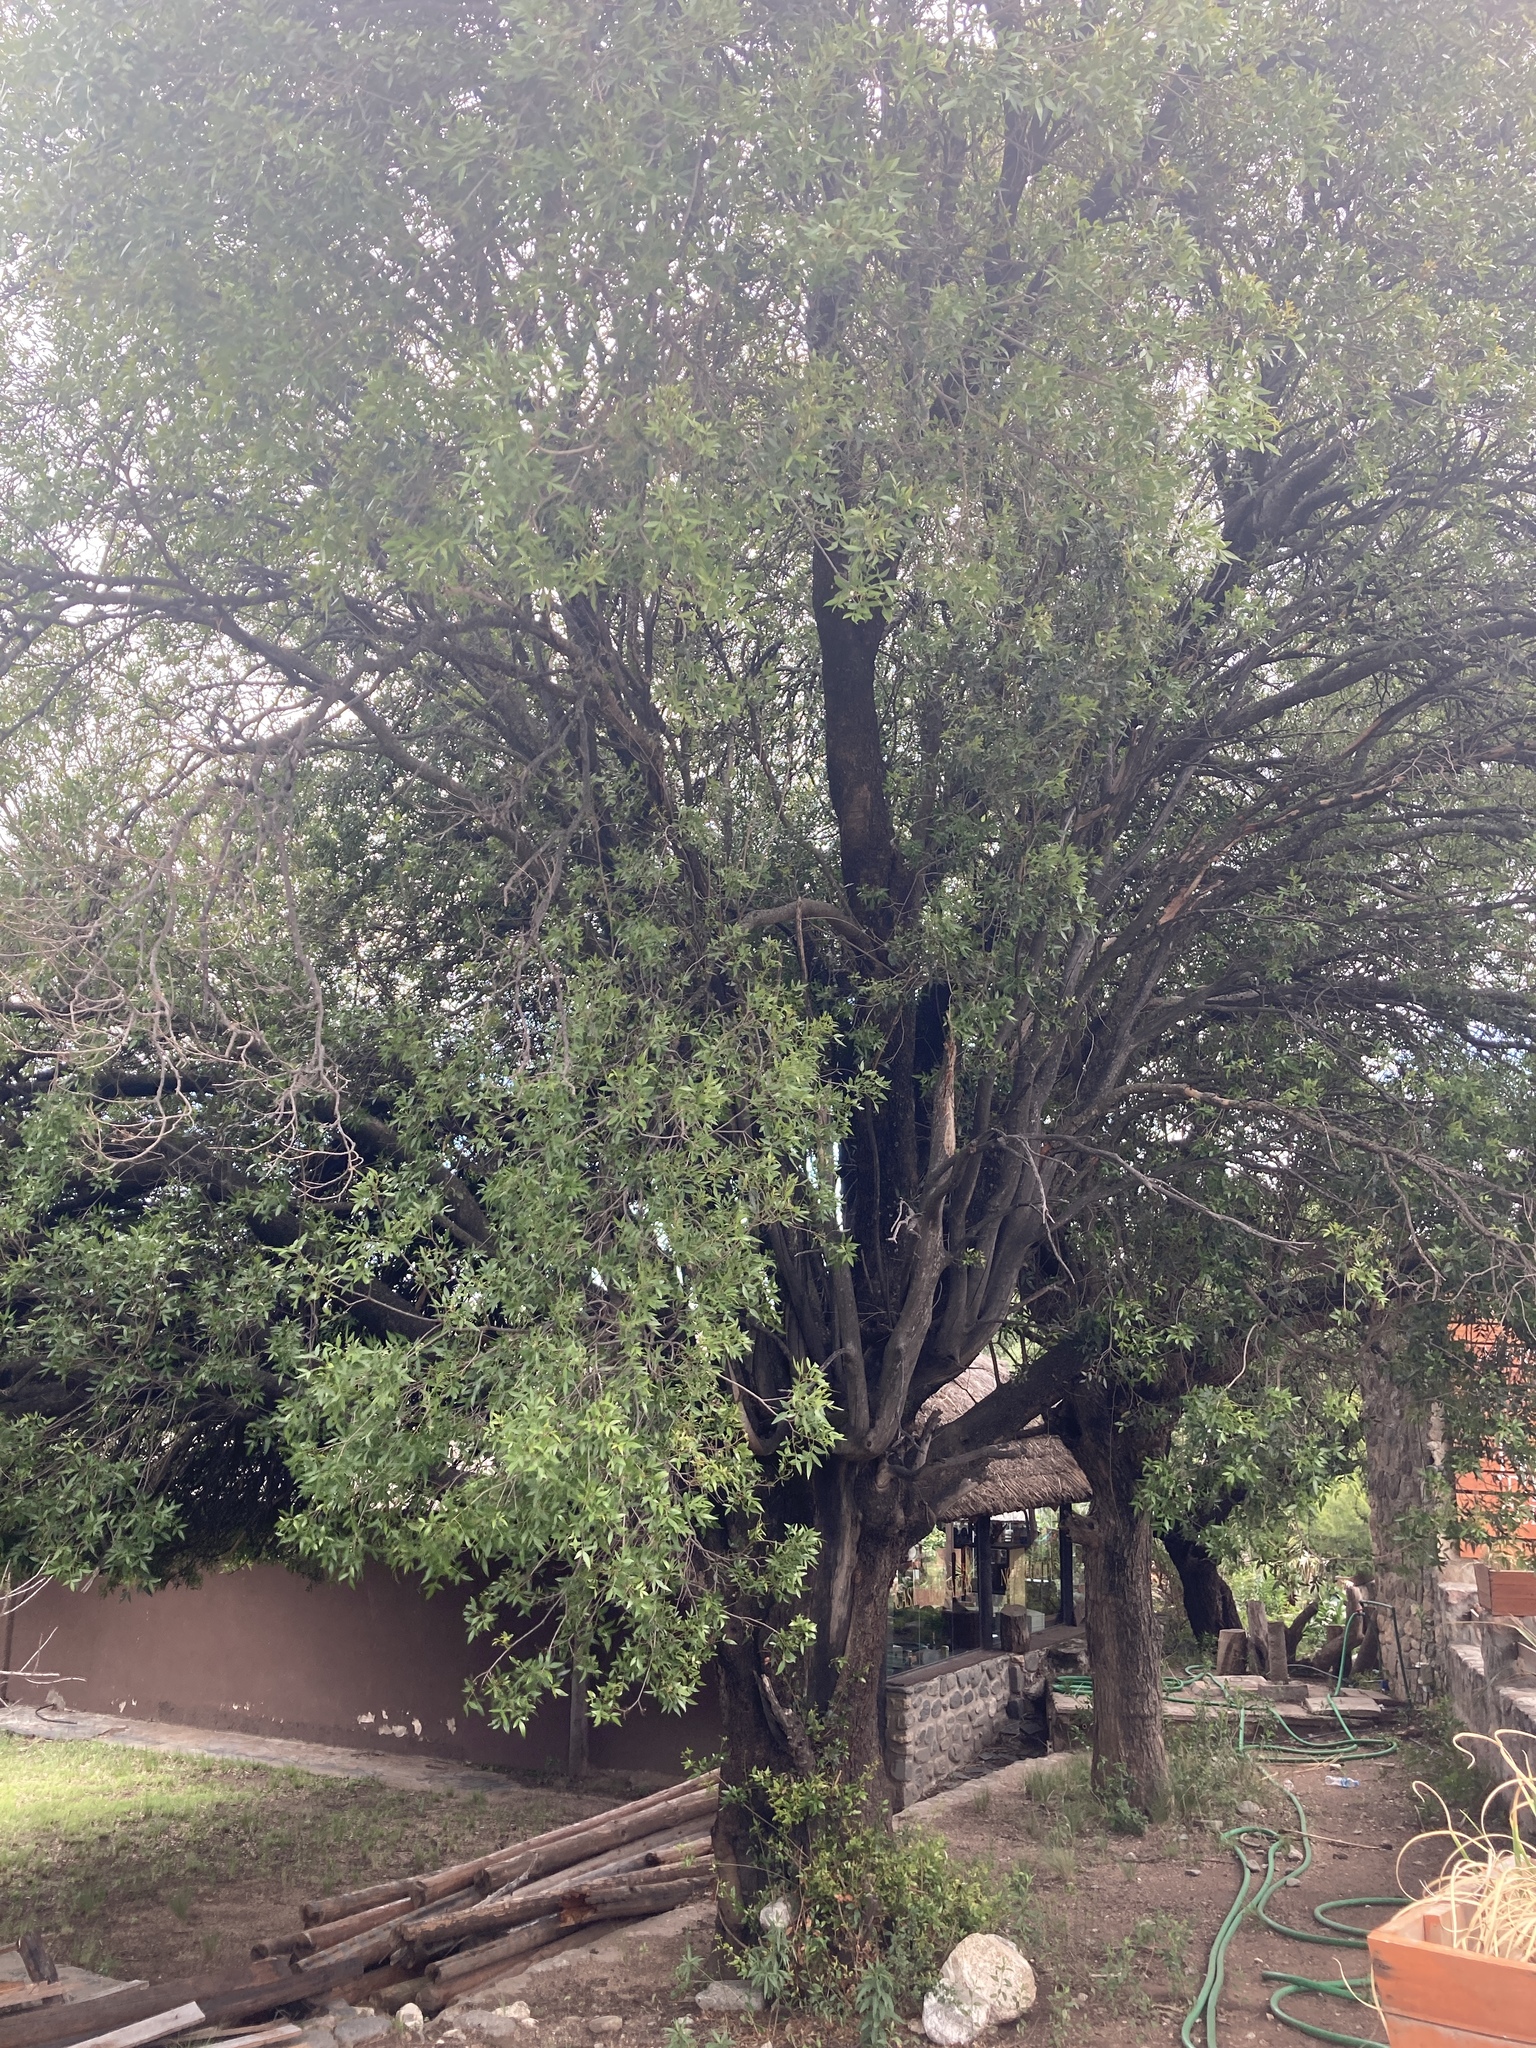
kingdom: Plantae
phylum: Tracheophyta
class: Magnoliopsida
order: Sapindales
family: Anacardiaceae
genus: Lithraea
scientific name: Lithraea molleoides
